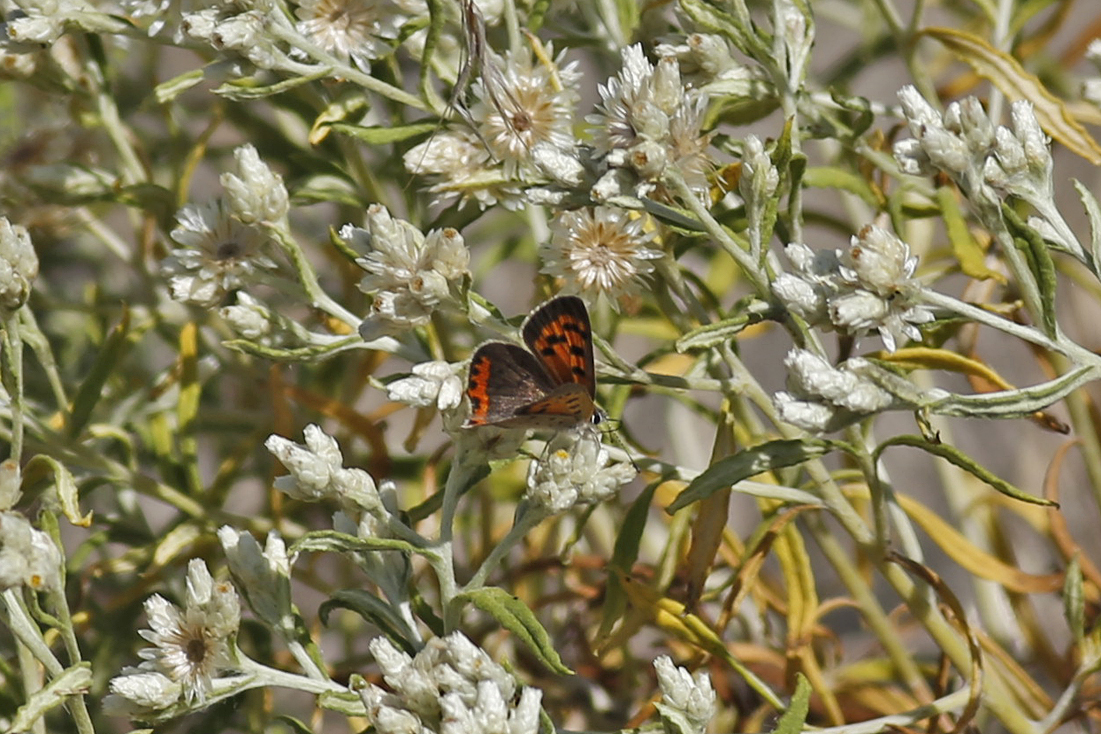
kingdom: Animalia
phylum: Arthropoda
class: Insecta
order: Lepidoptera
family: Lycaenidae
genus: Lycaena
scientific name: Lycaena hypophlaeas
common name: American copper
